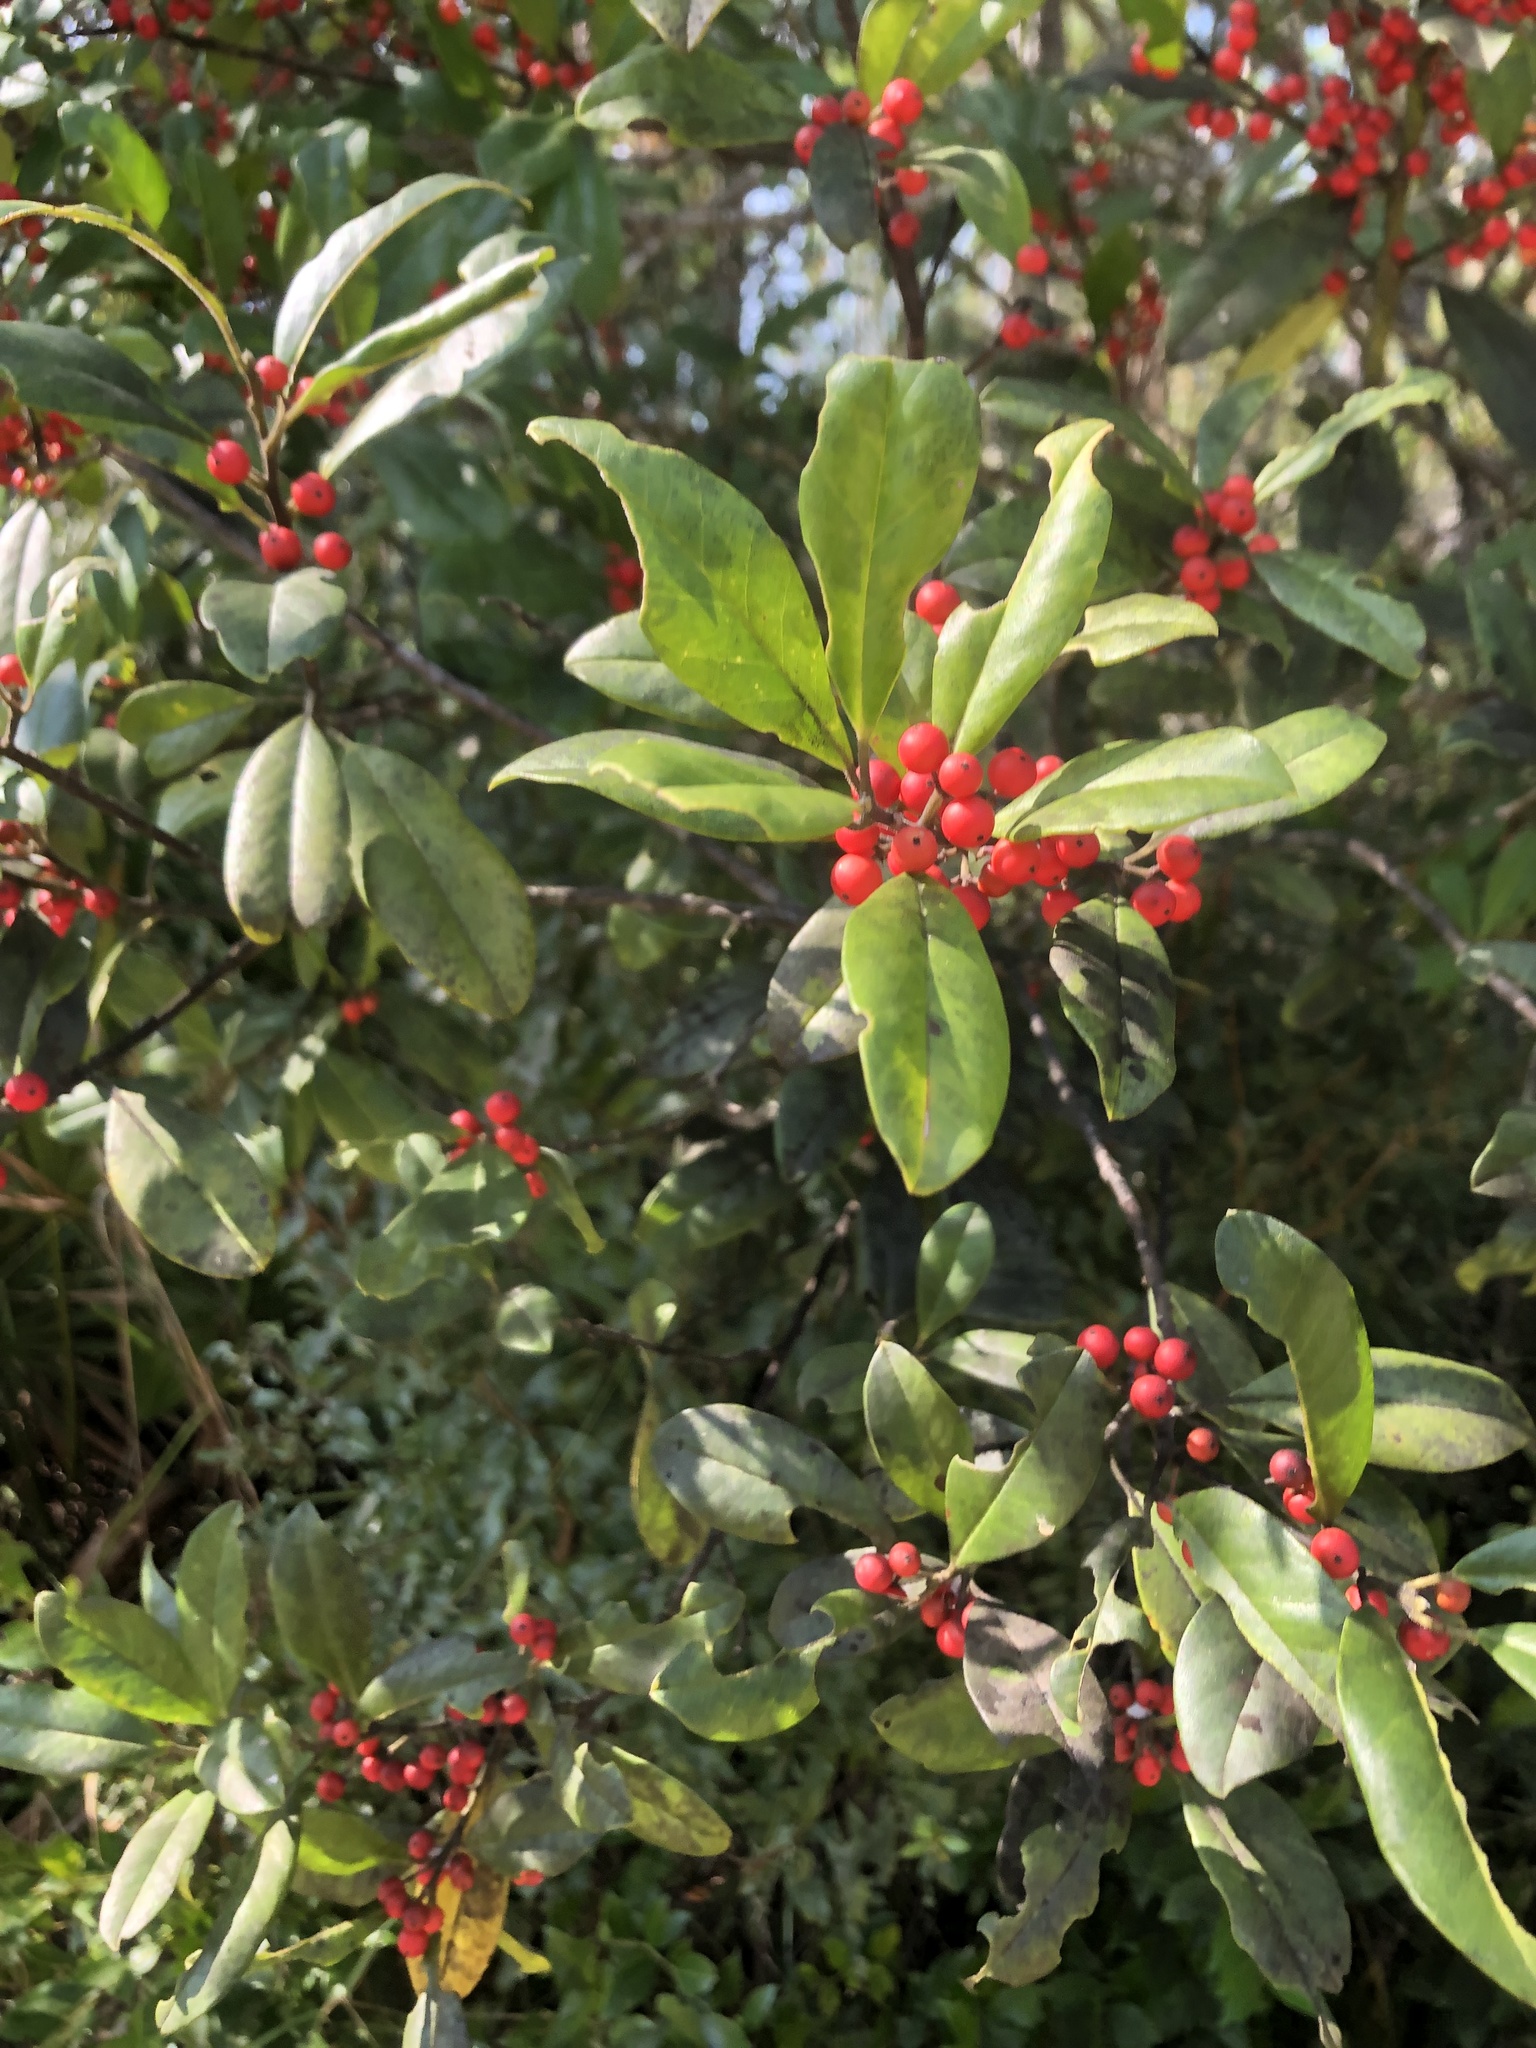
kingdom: Plantae
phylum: Tracheophyta
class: Magnoliopsida
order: Aquifoliales
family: Aquifoliaceae
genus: Ilex
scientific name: Ilex cassine
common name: Dahoon
